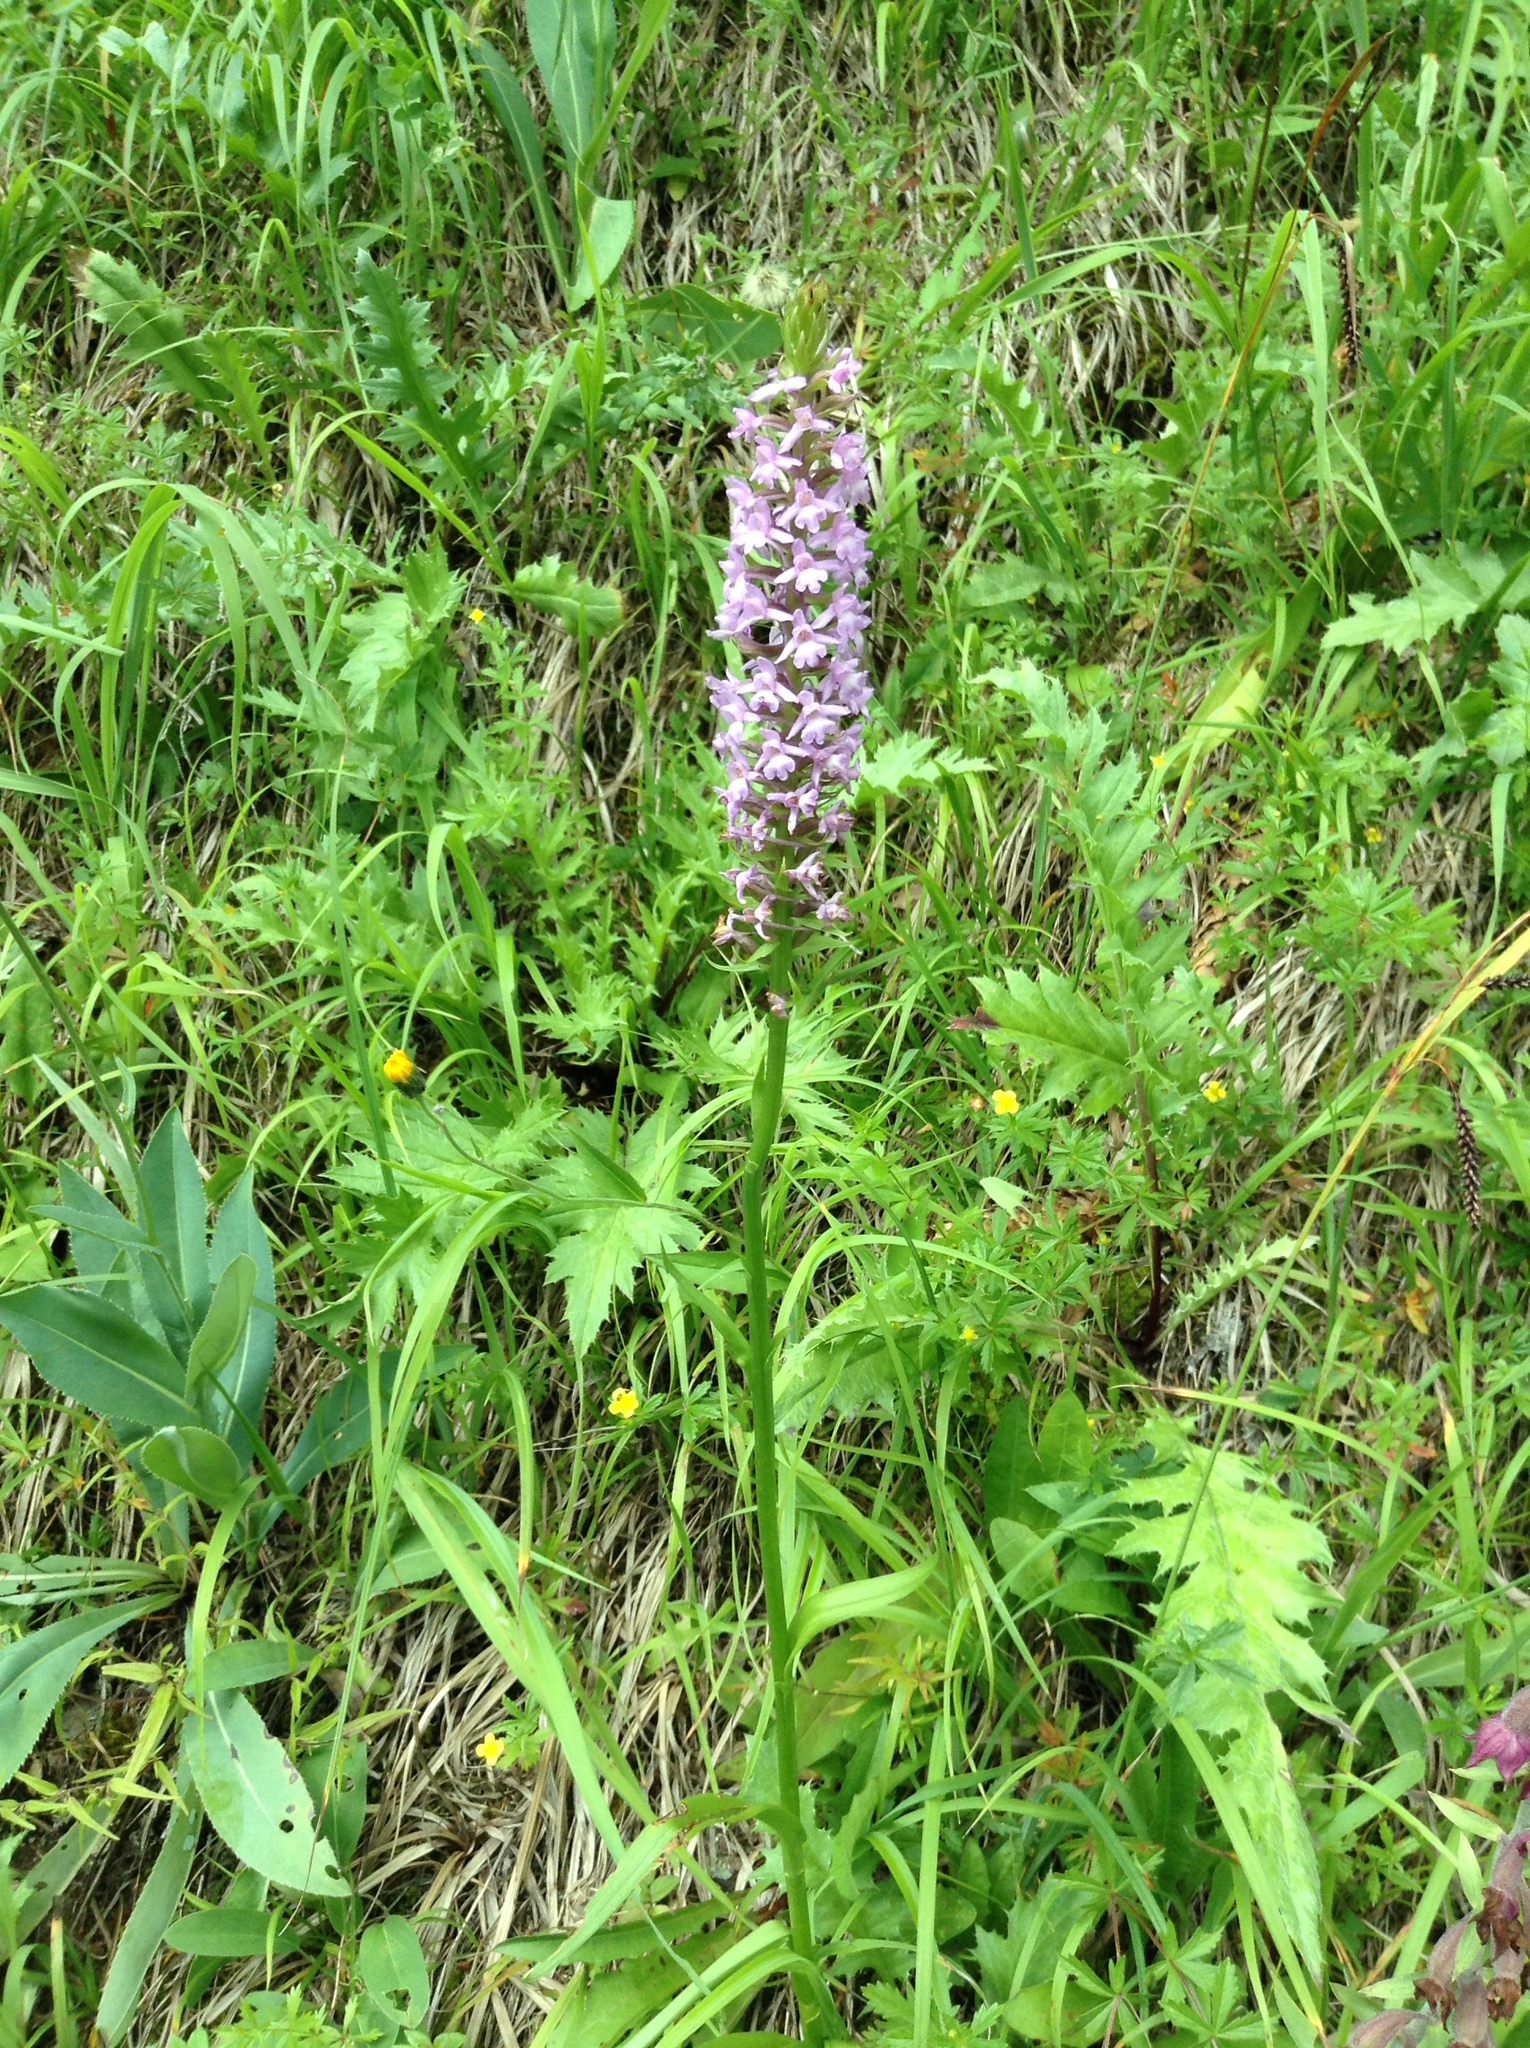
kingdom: Plantae
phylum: Tracheophyta
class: Liliopsida
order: Asparagales
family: Orchidaceae
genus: Gymnadenia
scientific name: Gymnadenia conopsea
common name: Fragrant orchid
